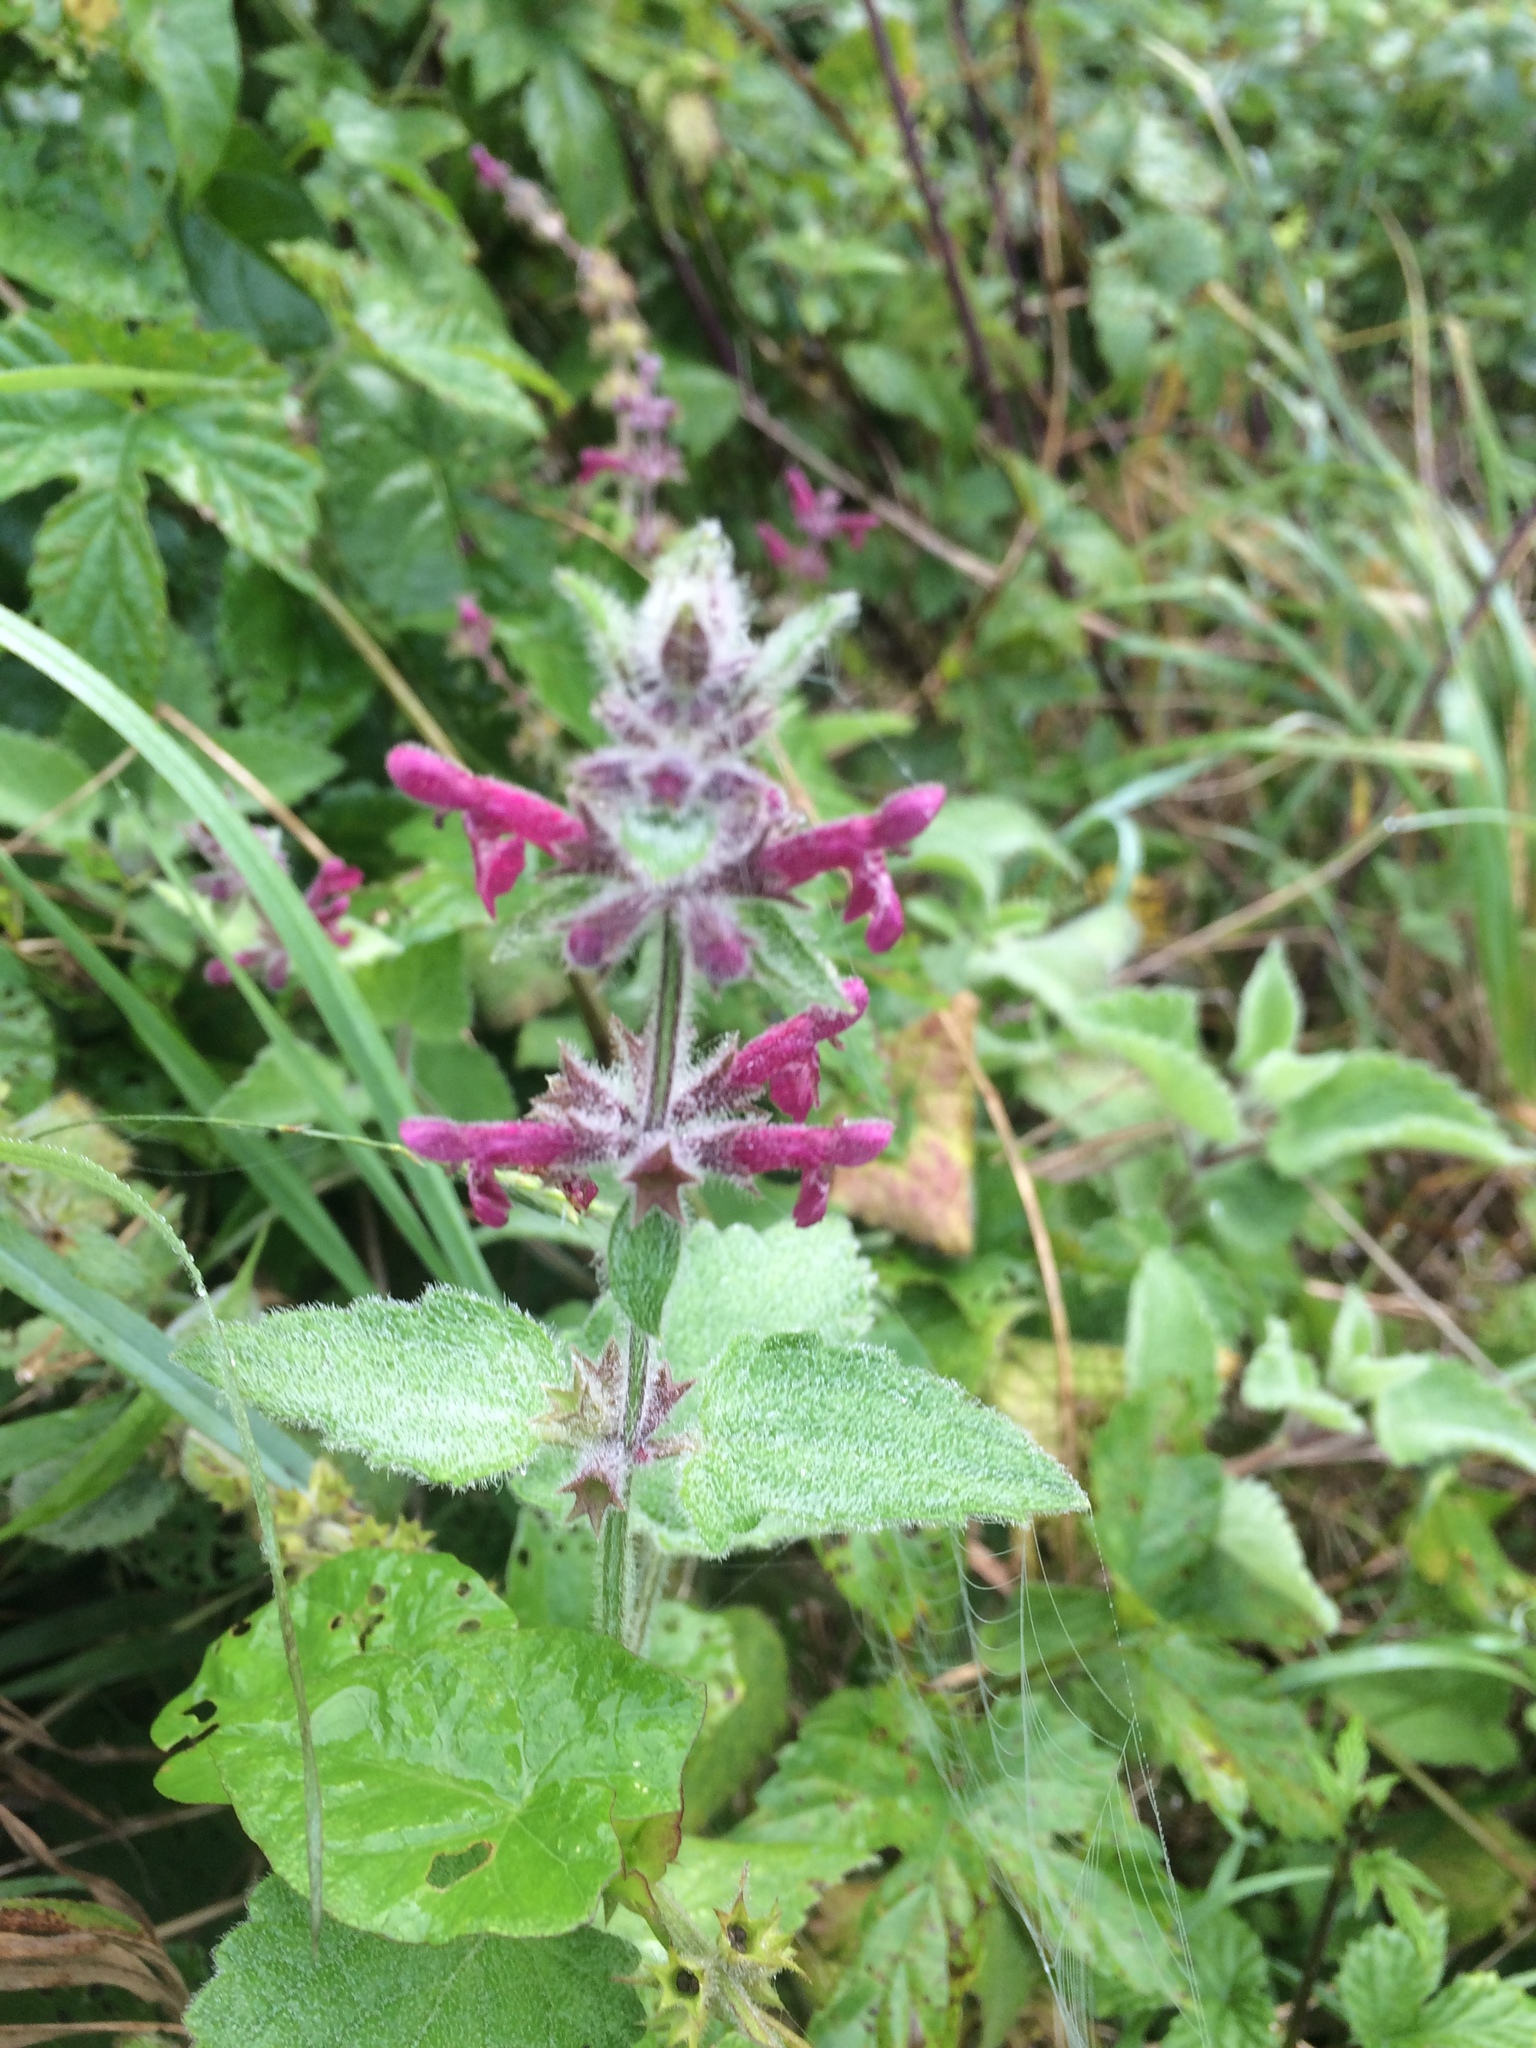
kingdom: Plantae
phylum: Tracheophyta
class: Magnoliopsida
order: Lamiales
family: Lamiaceae
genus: Stachys
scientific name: Stachys sylvatica
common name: Hedge woundwort
